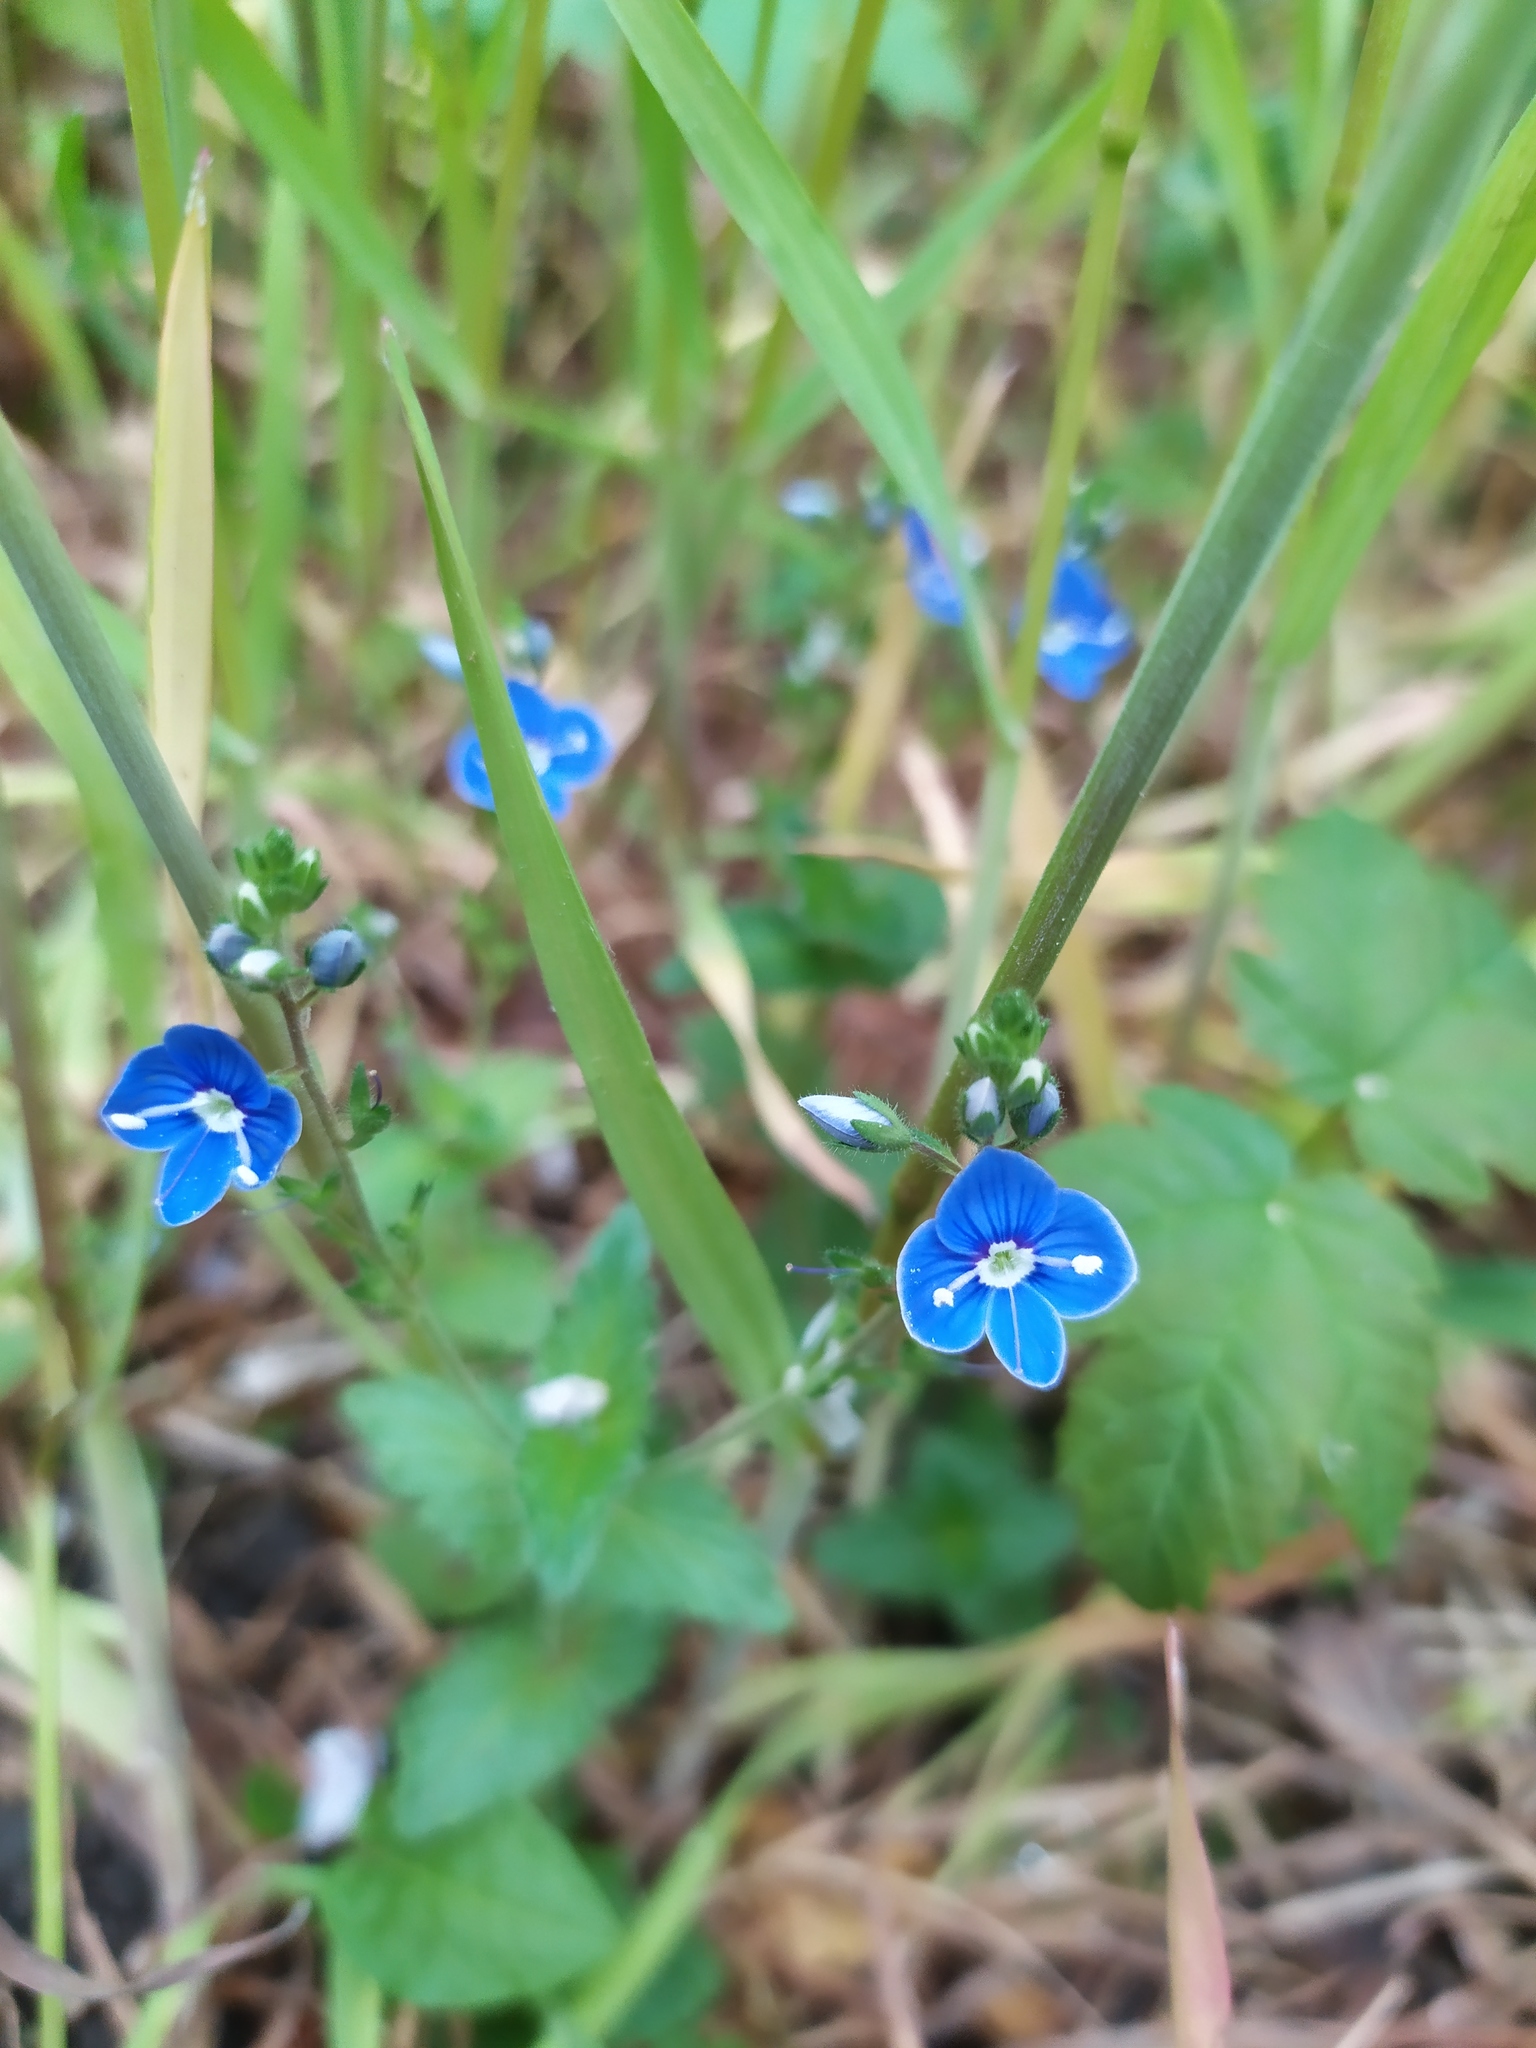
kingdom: Plantae
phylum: Tracheophyta
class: Magnoliopsida
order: Lamiales
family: Plantaginaceae
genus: Veronica
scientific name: Veronica chamaedrys
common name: Germander speedwell
